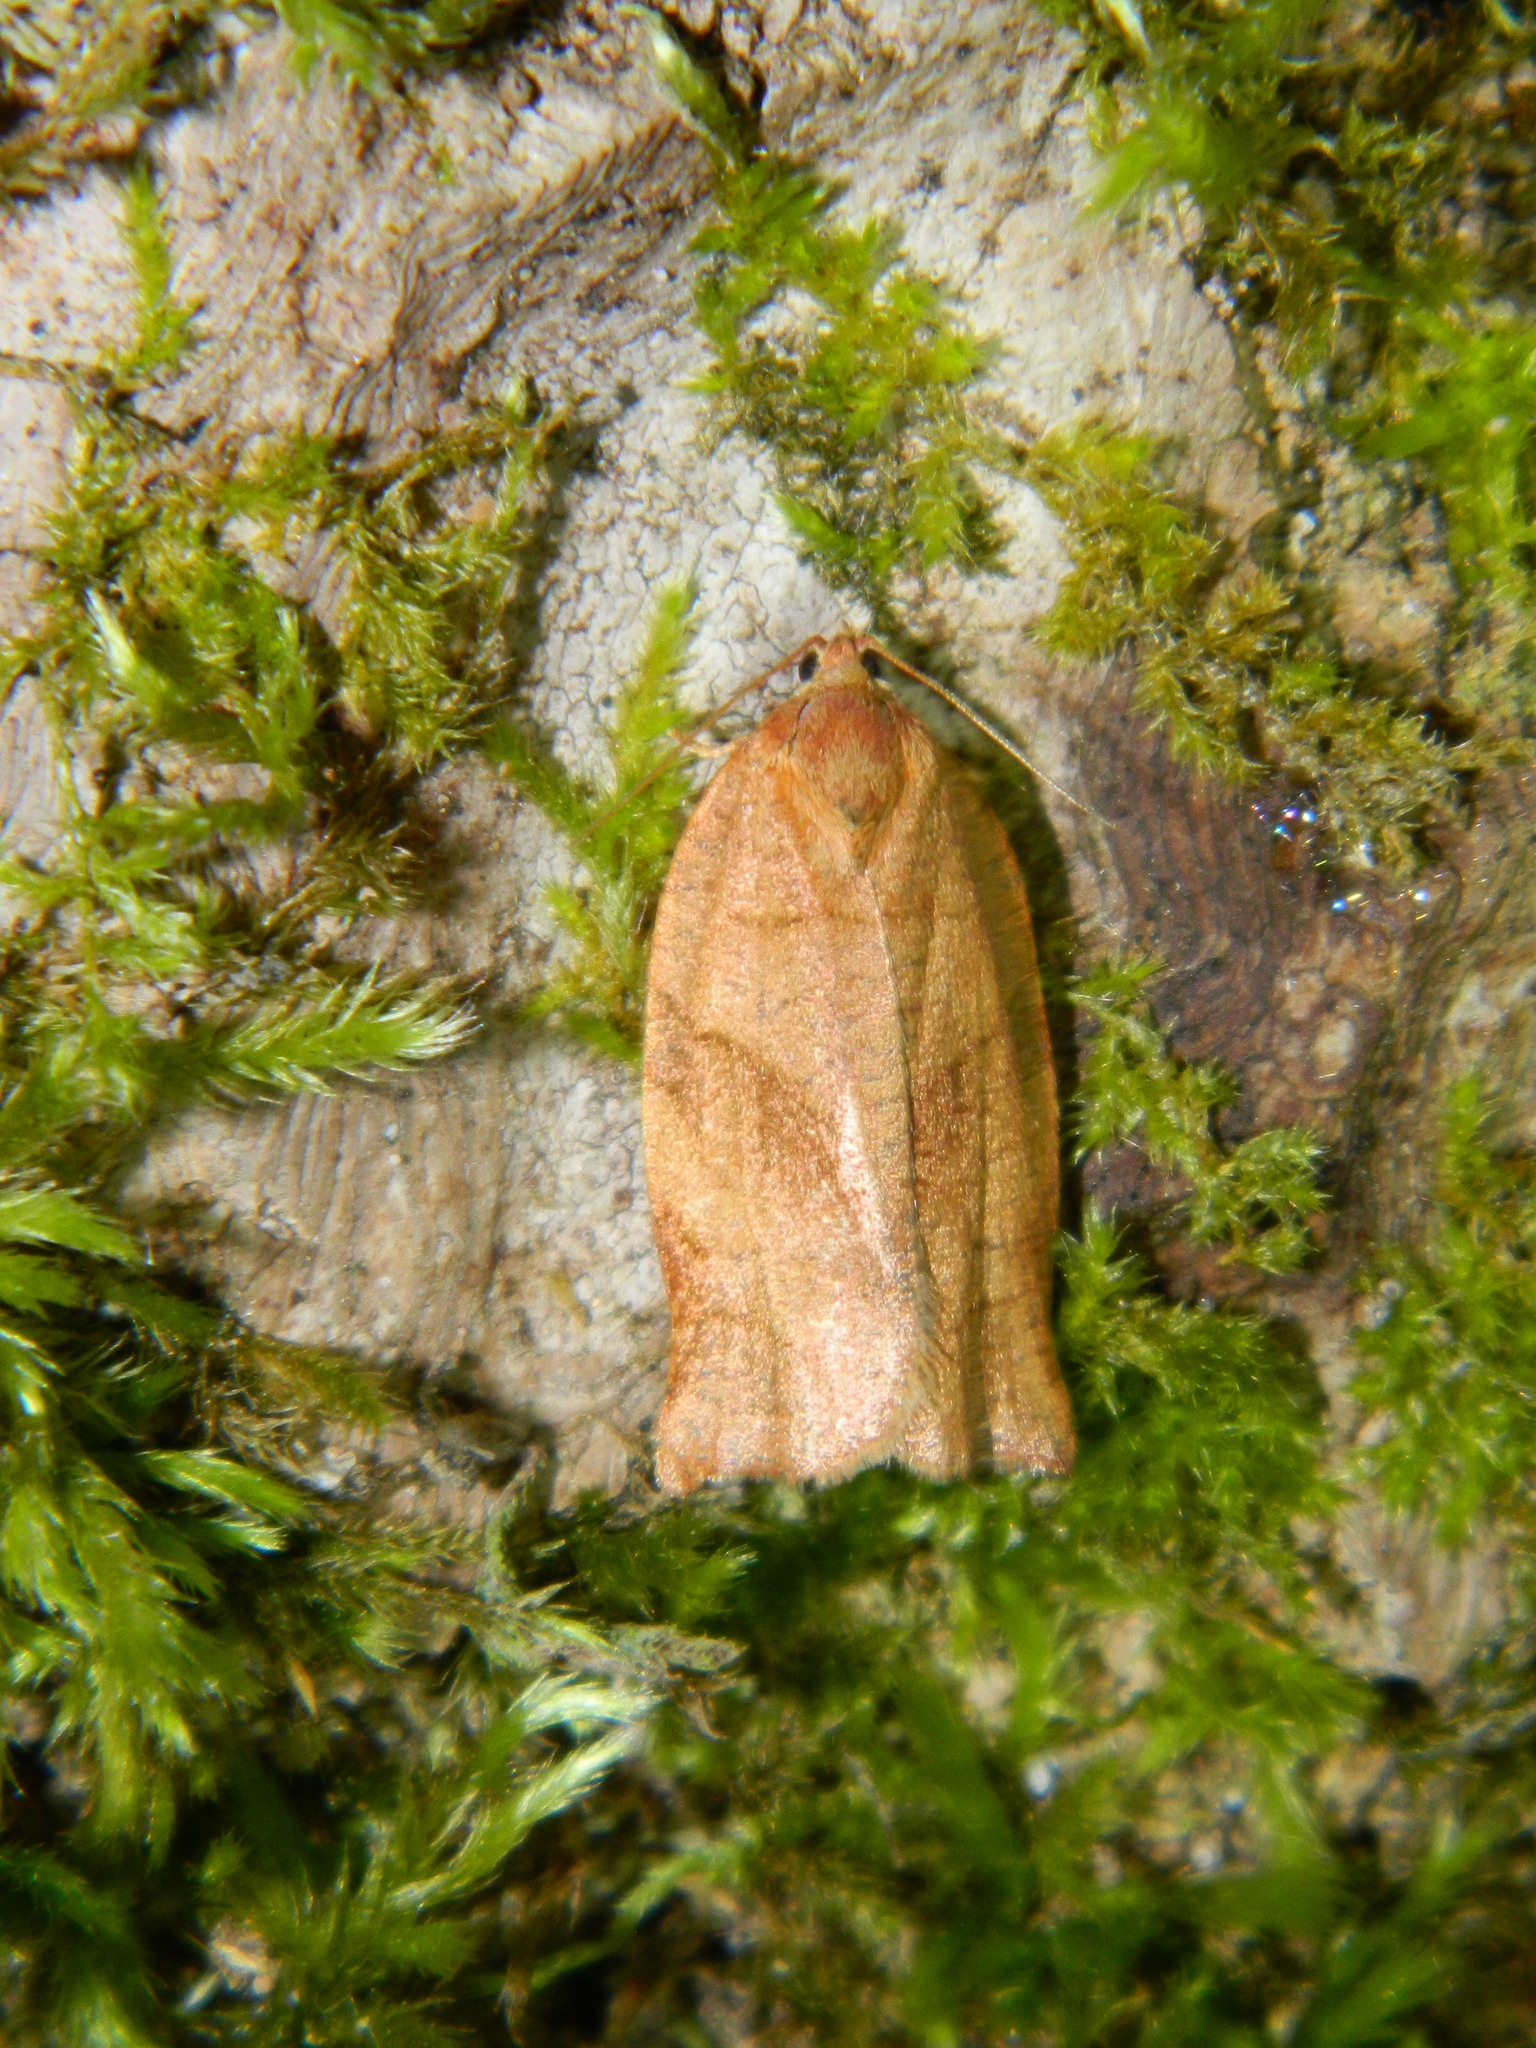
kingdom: Animalia
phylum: Arthropoda
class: Insecta
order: Lepidoptera
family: Tortricidae
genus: Choristoneura
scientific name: Choristoneura rosaceana
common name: Oblique-banded leafroller moth
